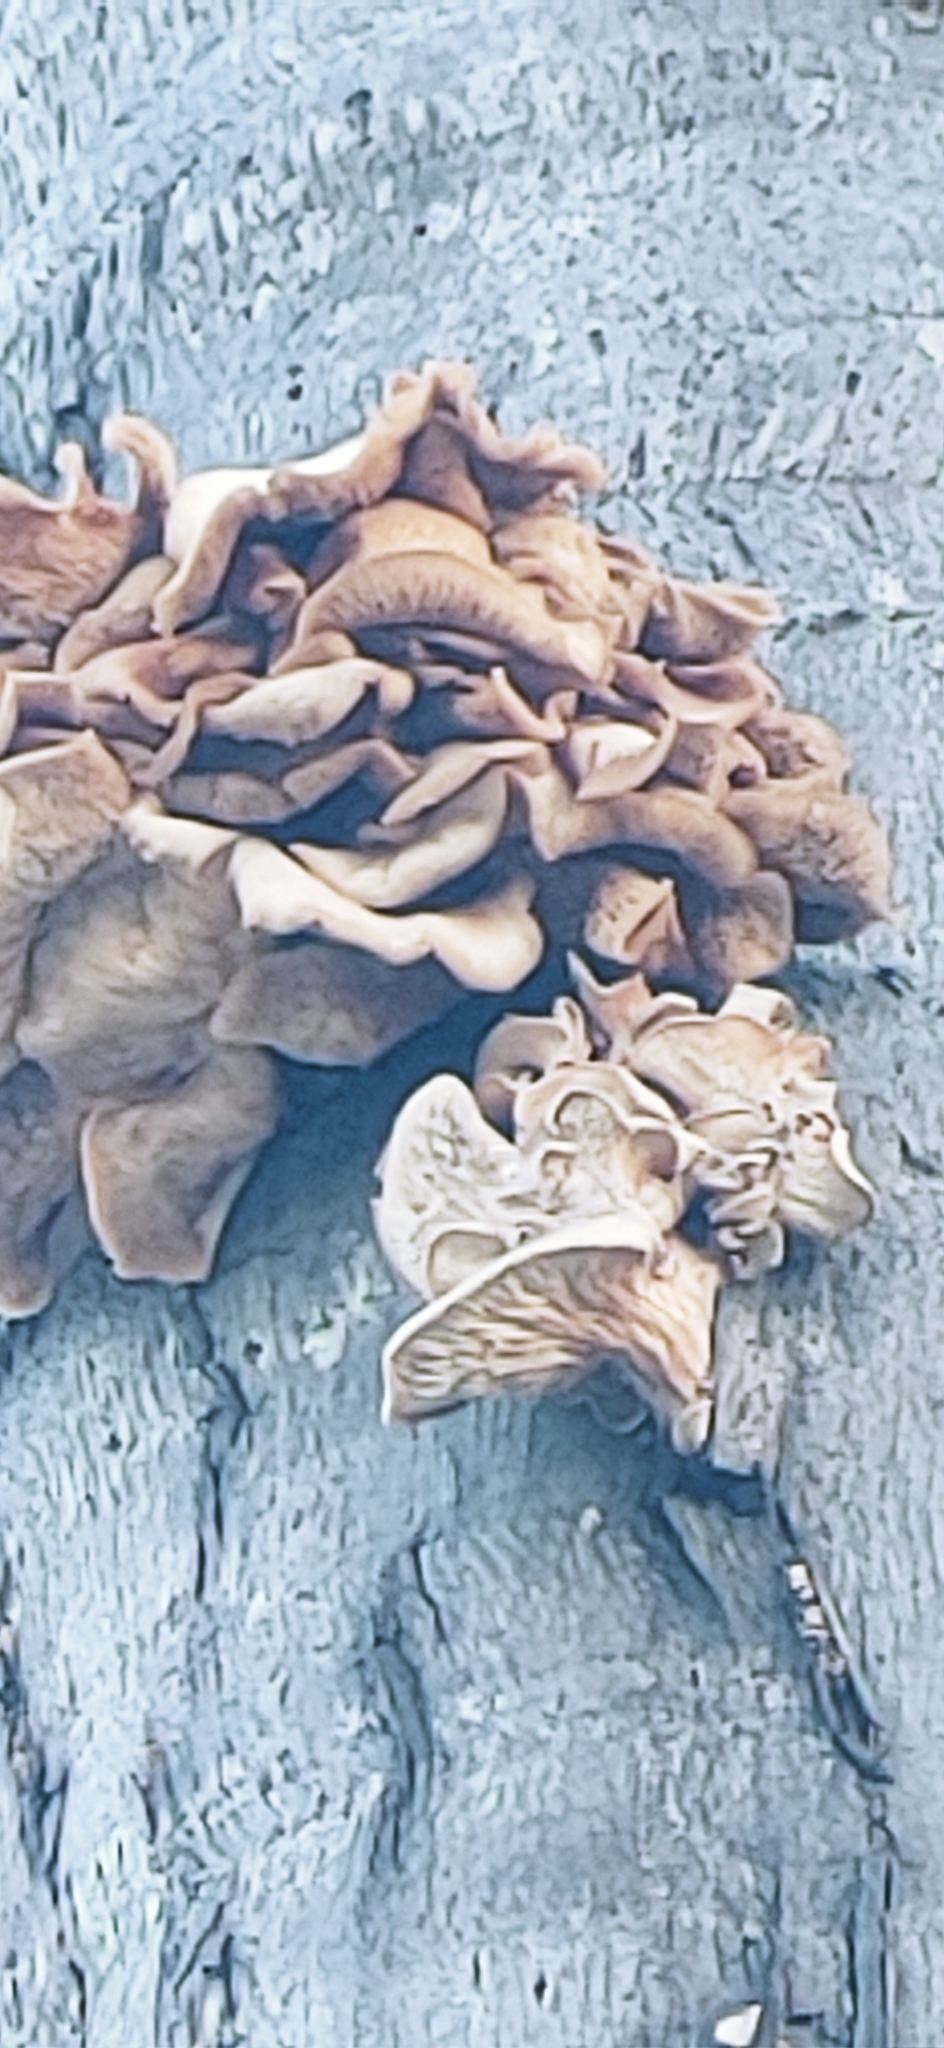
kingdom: Fungi
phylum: Basidiomycota
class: Agaricomycetes
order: Agaricales
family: Phyllotopsidaceae
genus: Phyllotopsis
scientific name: Phyllotopsis nidulans
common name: Orange mock oyster
